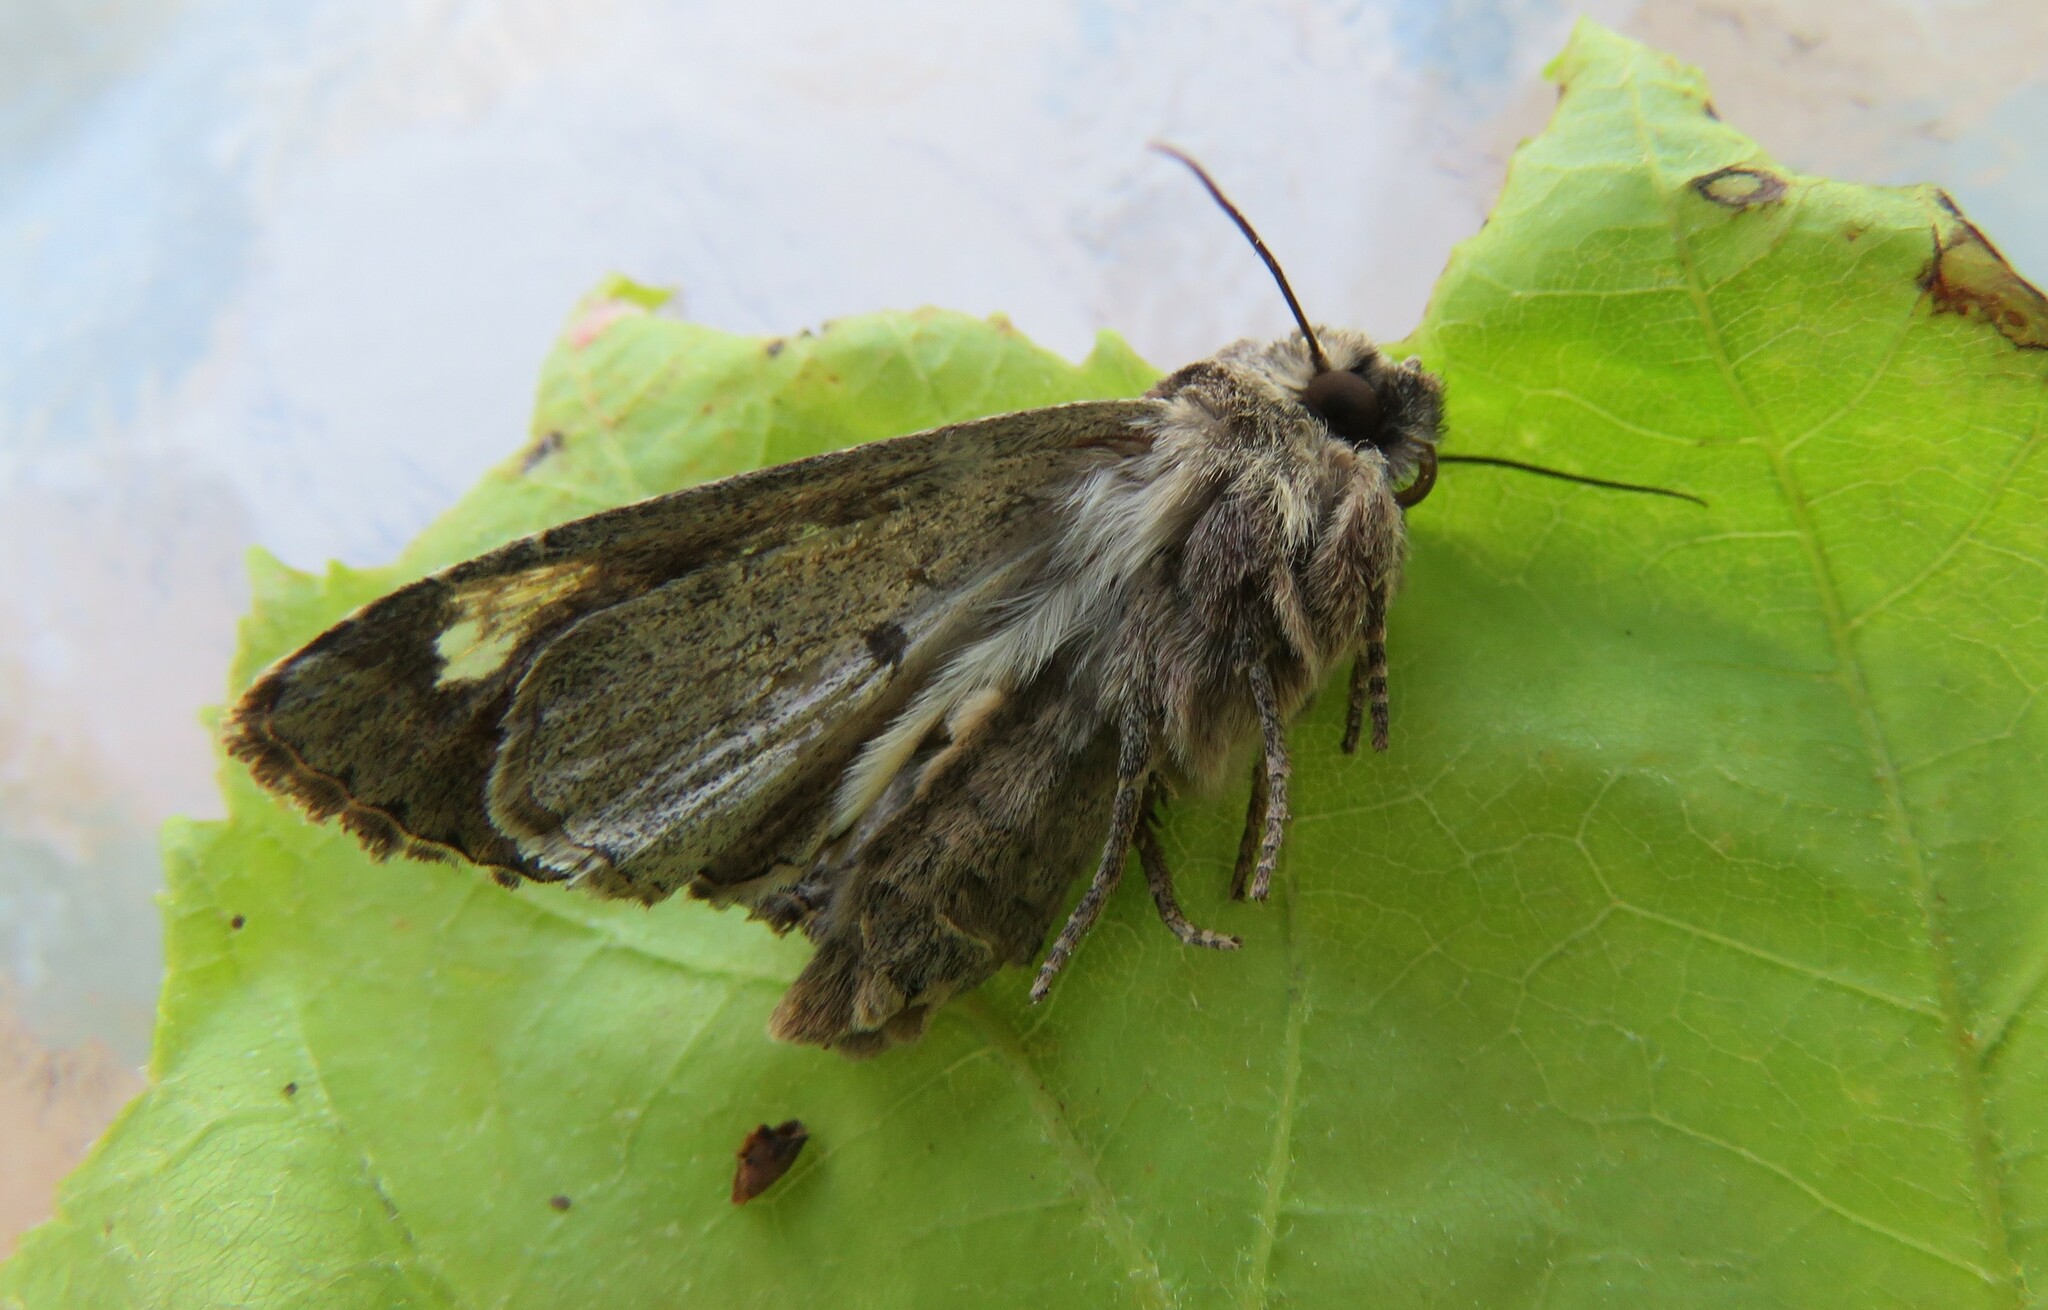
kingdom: Animalia
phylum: Arthropoda
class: Insecta
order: Lepidoptera
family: Noctuidae
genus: Apamea
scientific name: Apamea sordens
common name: Rustic shoulder-knot
